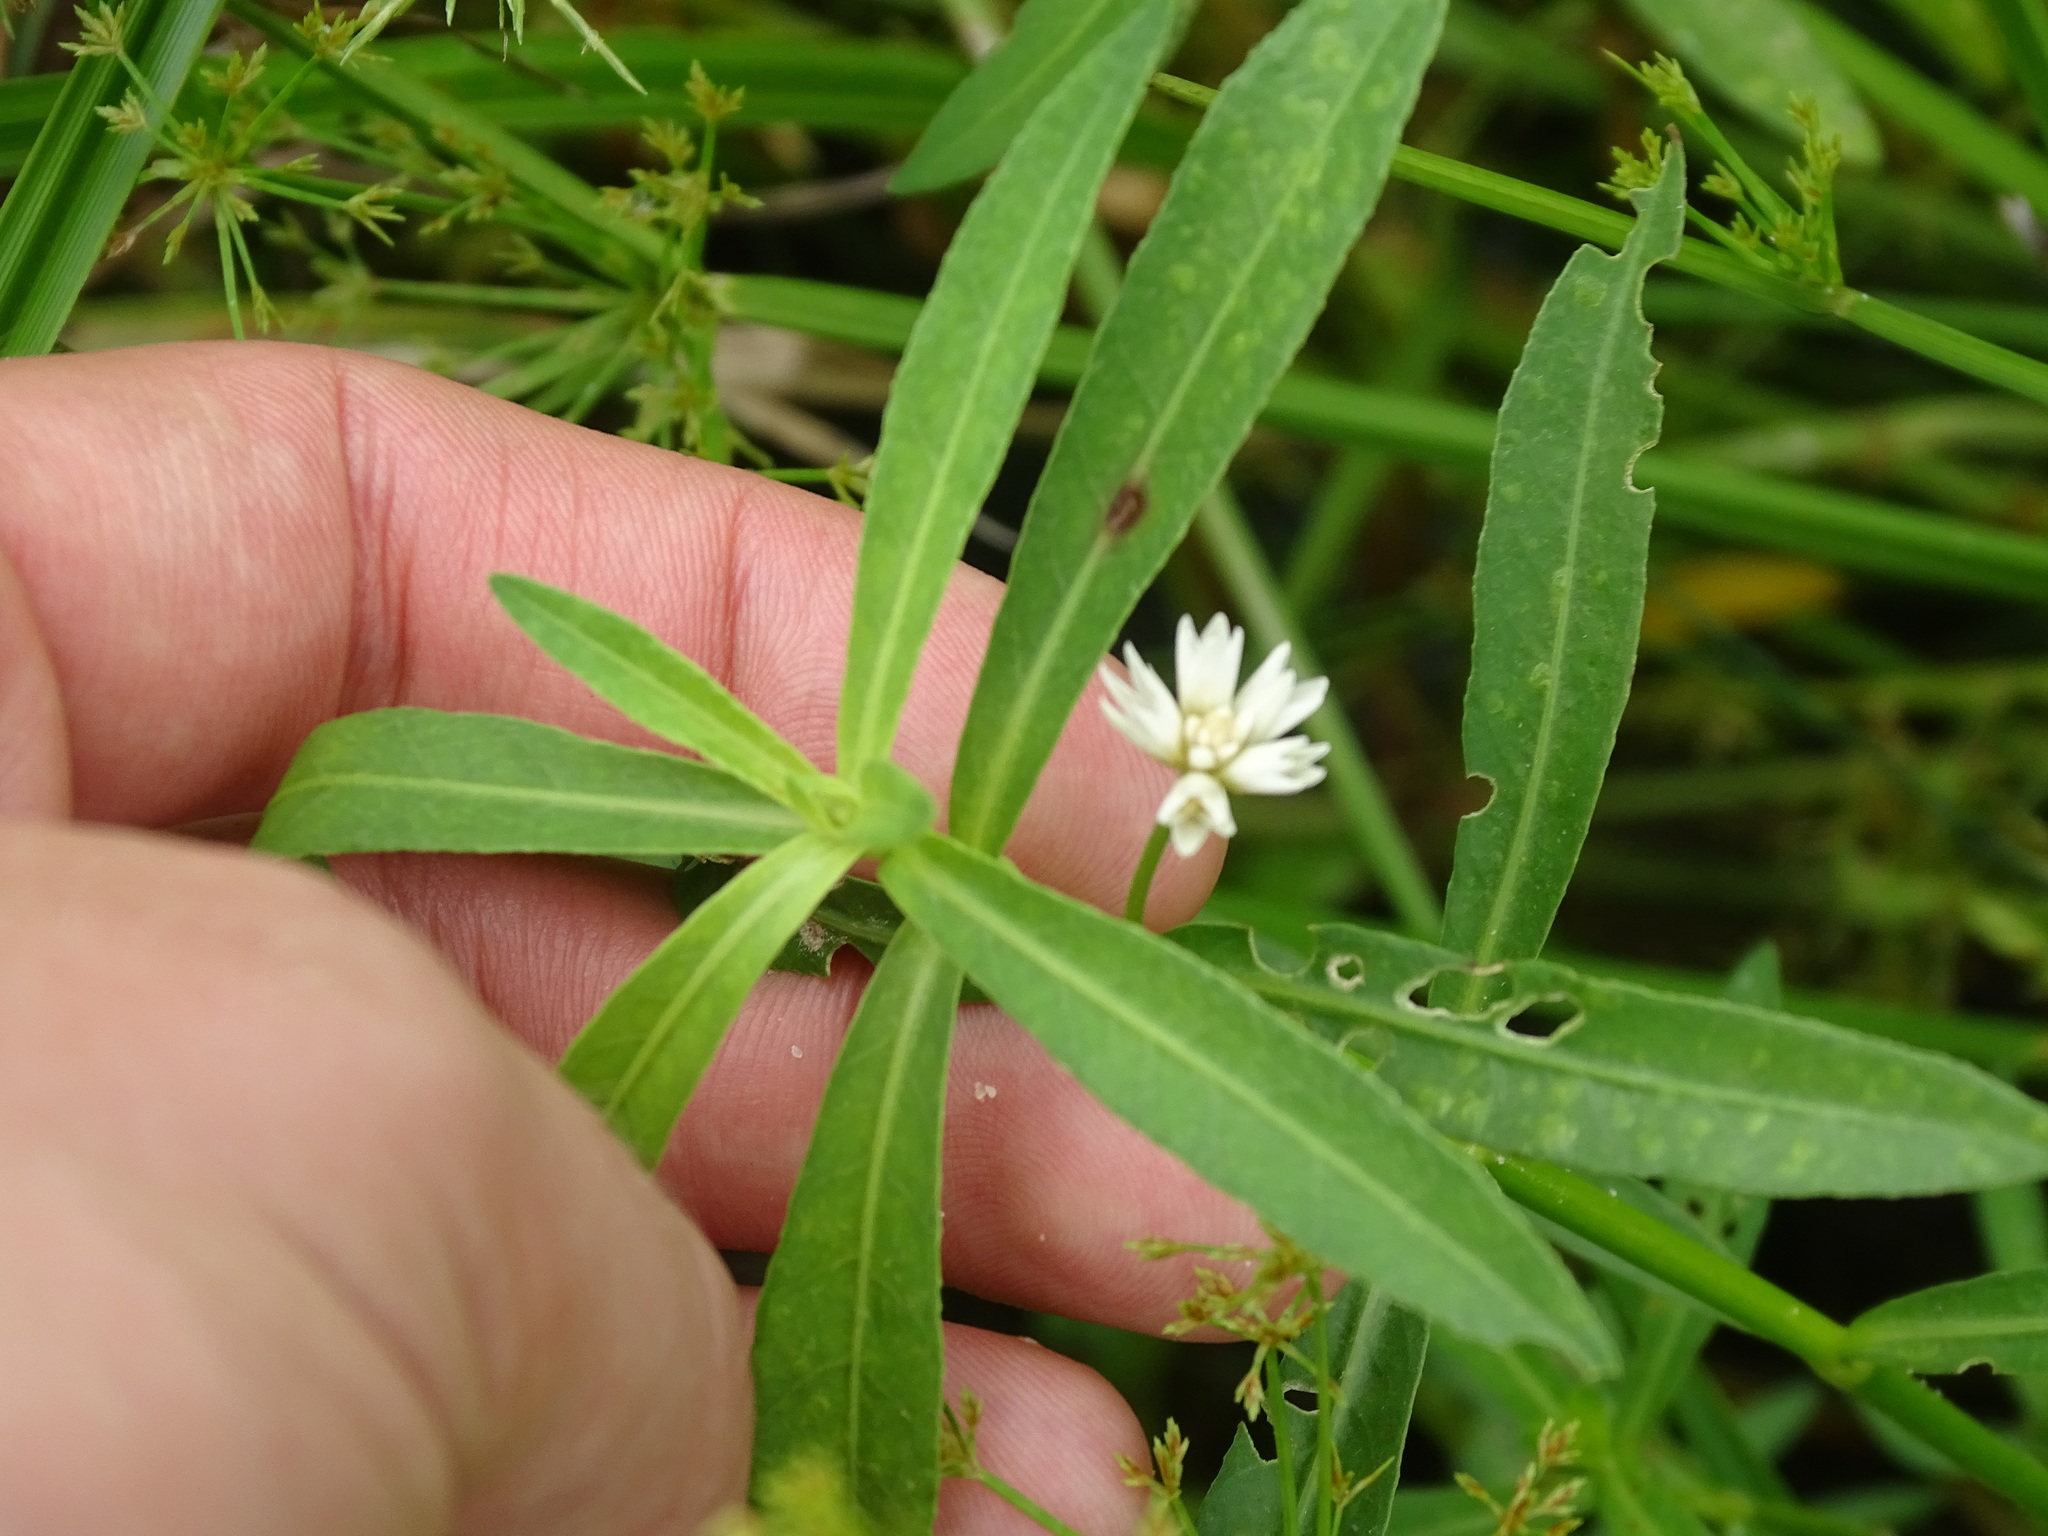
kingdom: Plantae
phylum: Tracheophyta
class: Magnoliopsida
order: Caryophyllales
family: Amaranthaceae
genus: Alternanthera
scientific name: Alternanthera philoxeroides
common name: Alligatorweed
